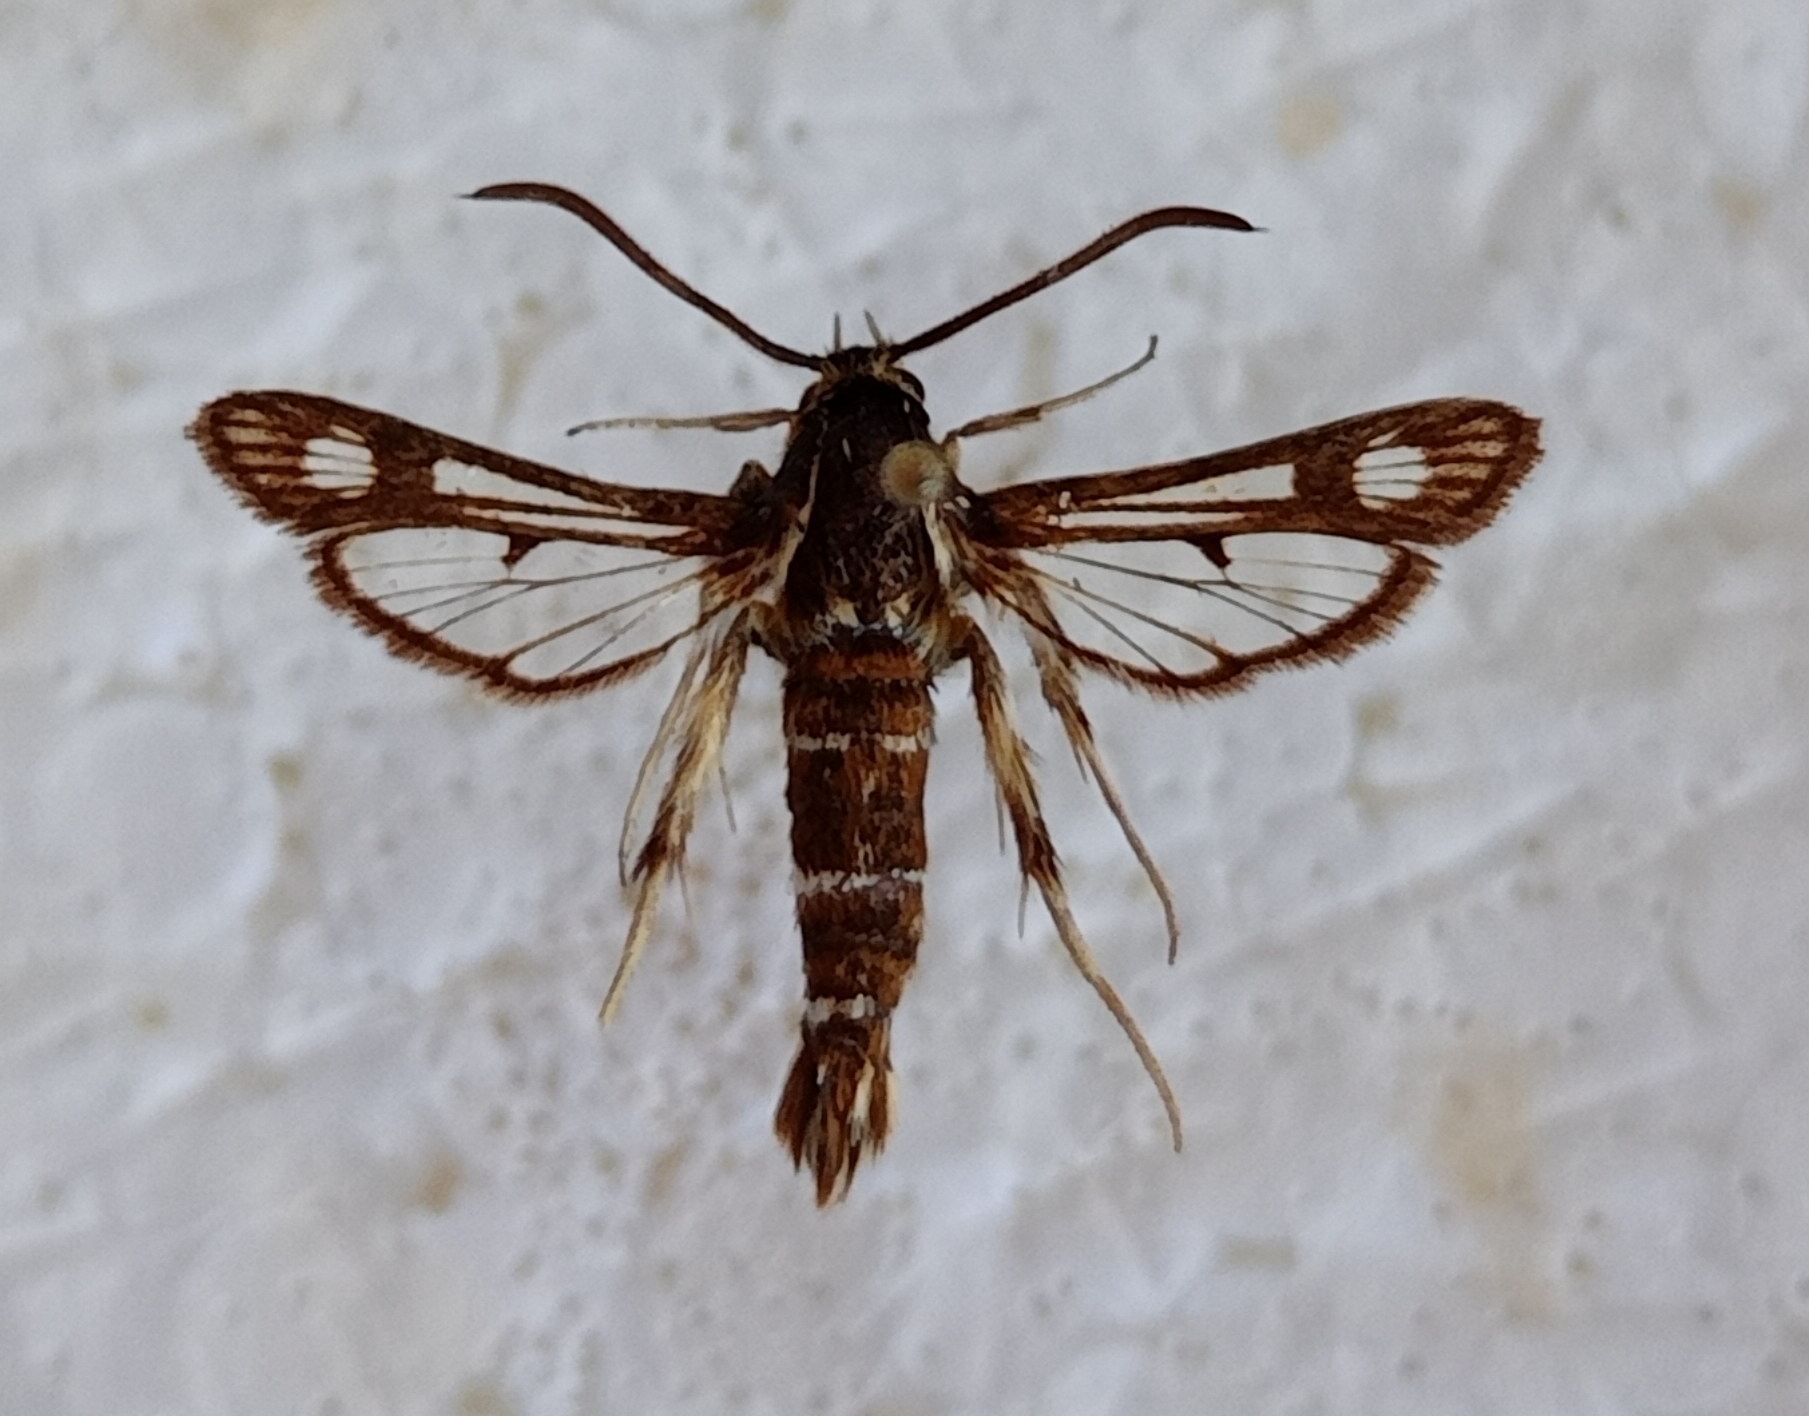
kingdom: Animalia
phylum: Arthropoda
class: Insecta
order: Lepidoptera
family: Sesiidae
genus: Chamaesphecia
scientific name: Chamaesphecia doleriformis
